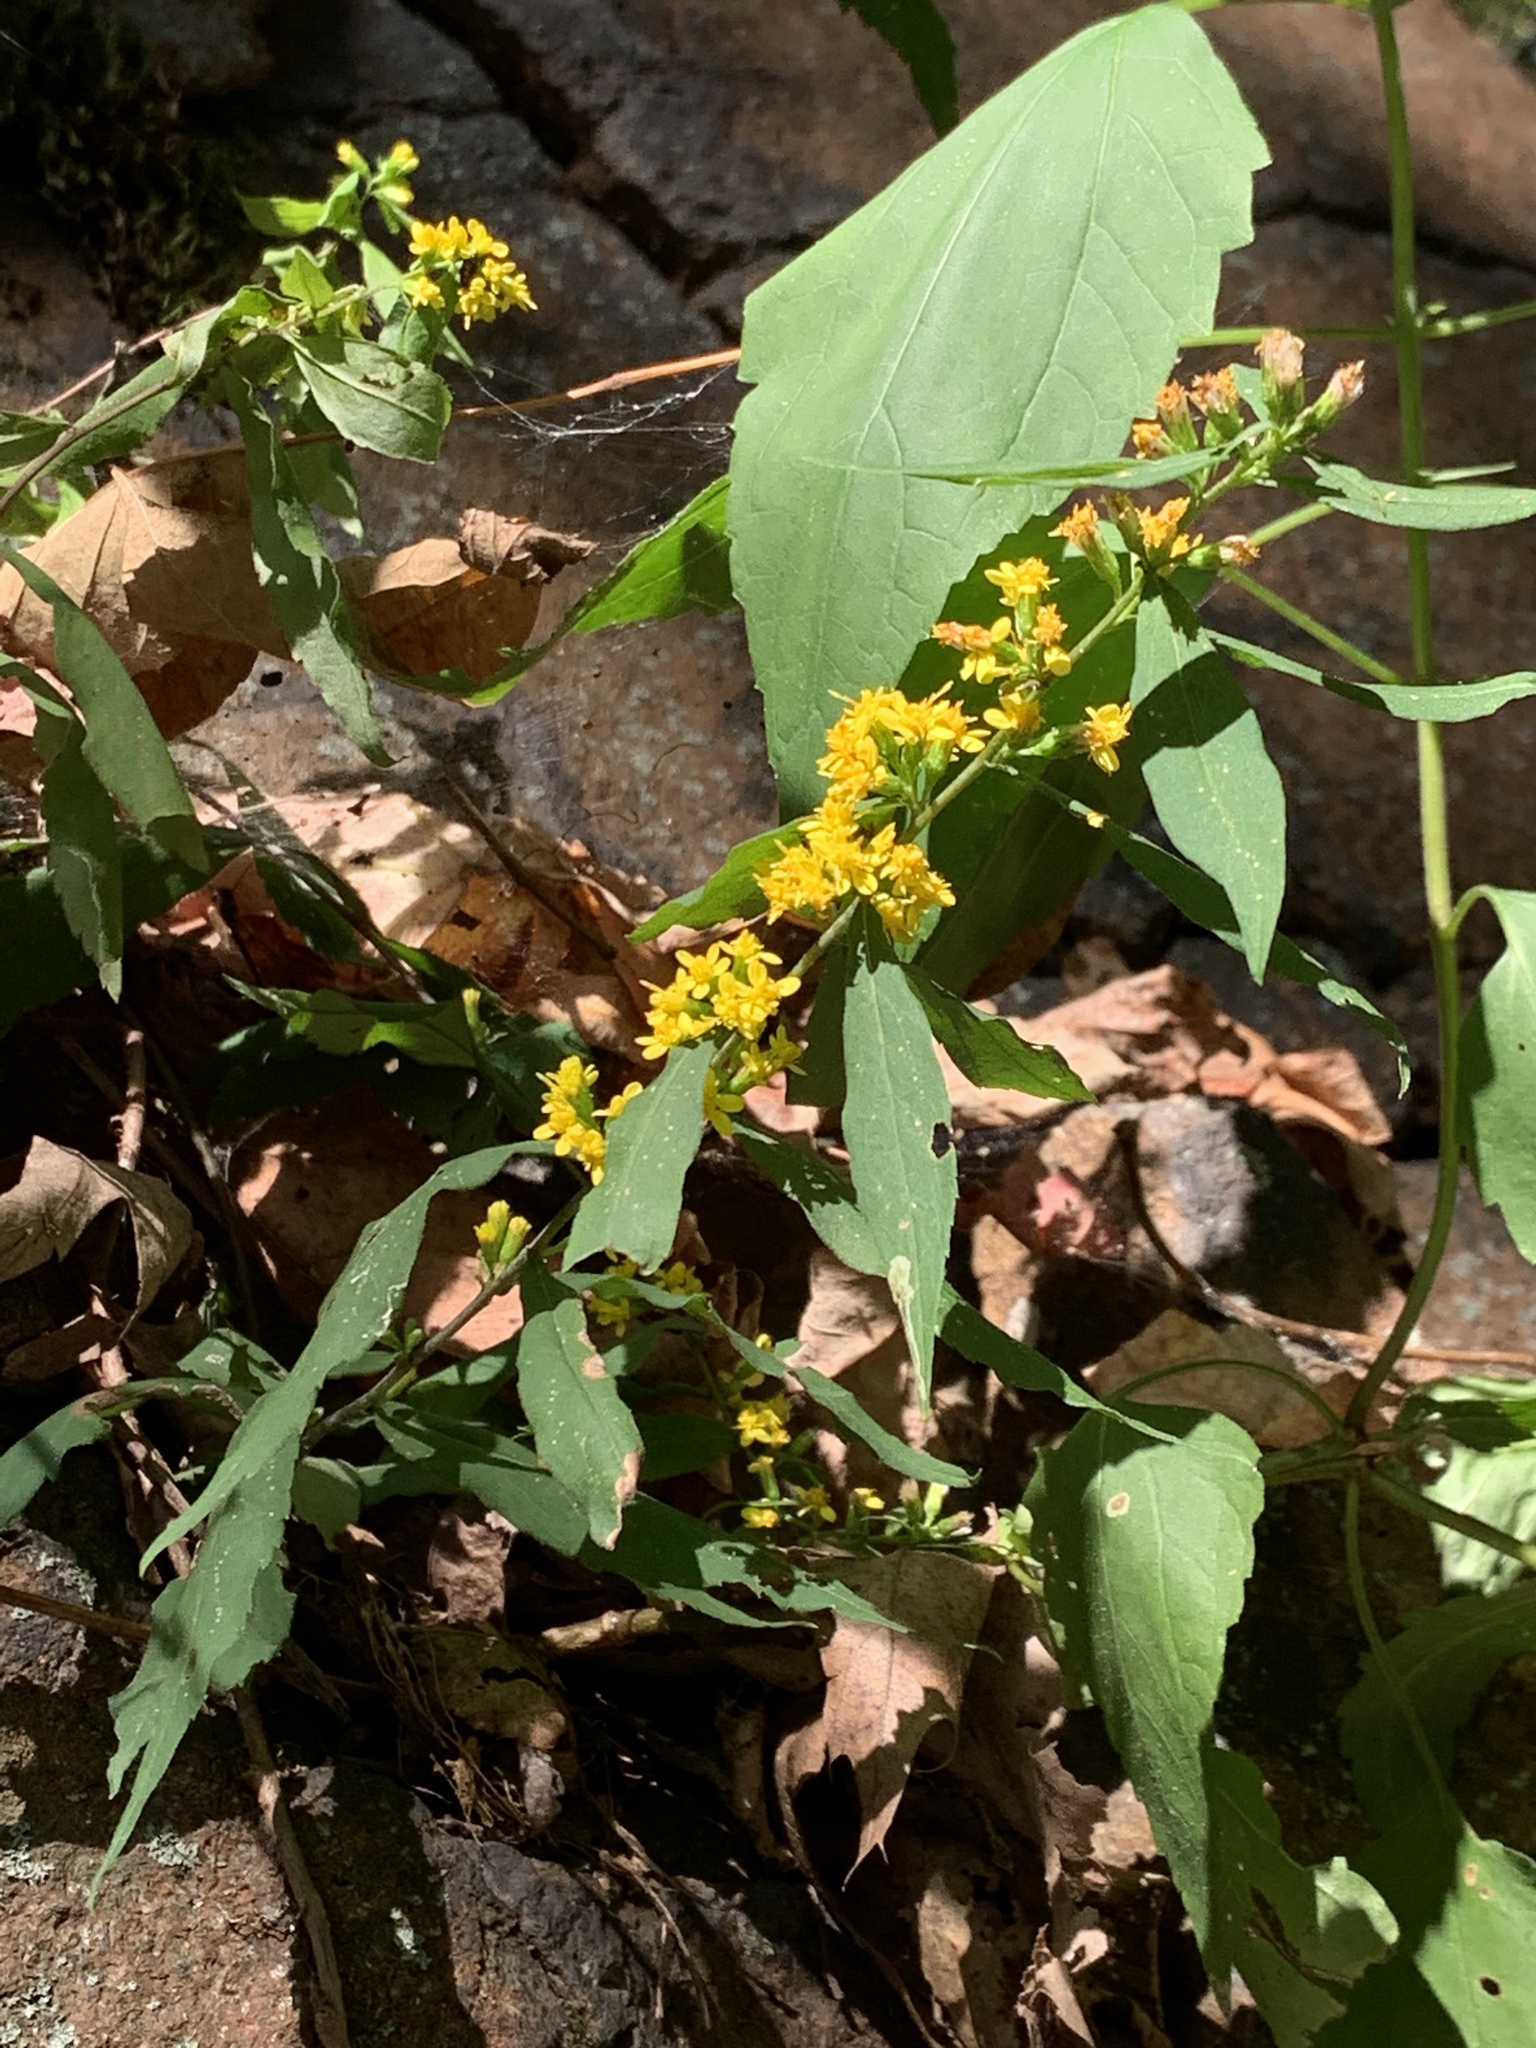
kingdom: Plantae
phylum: Tracheophyta
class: Magnoliopsida
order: Asterales
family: Asteraceae
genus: Solidago
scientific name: Solidago caesia
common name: Woodland goldenrod
